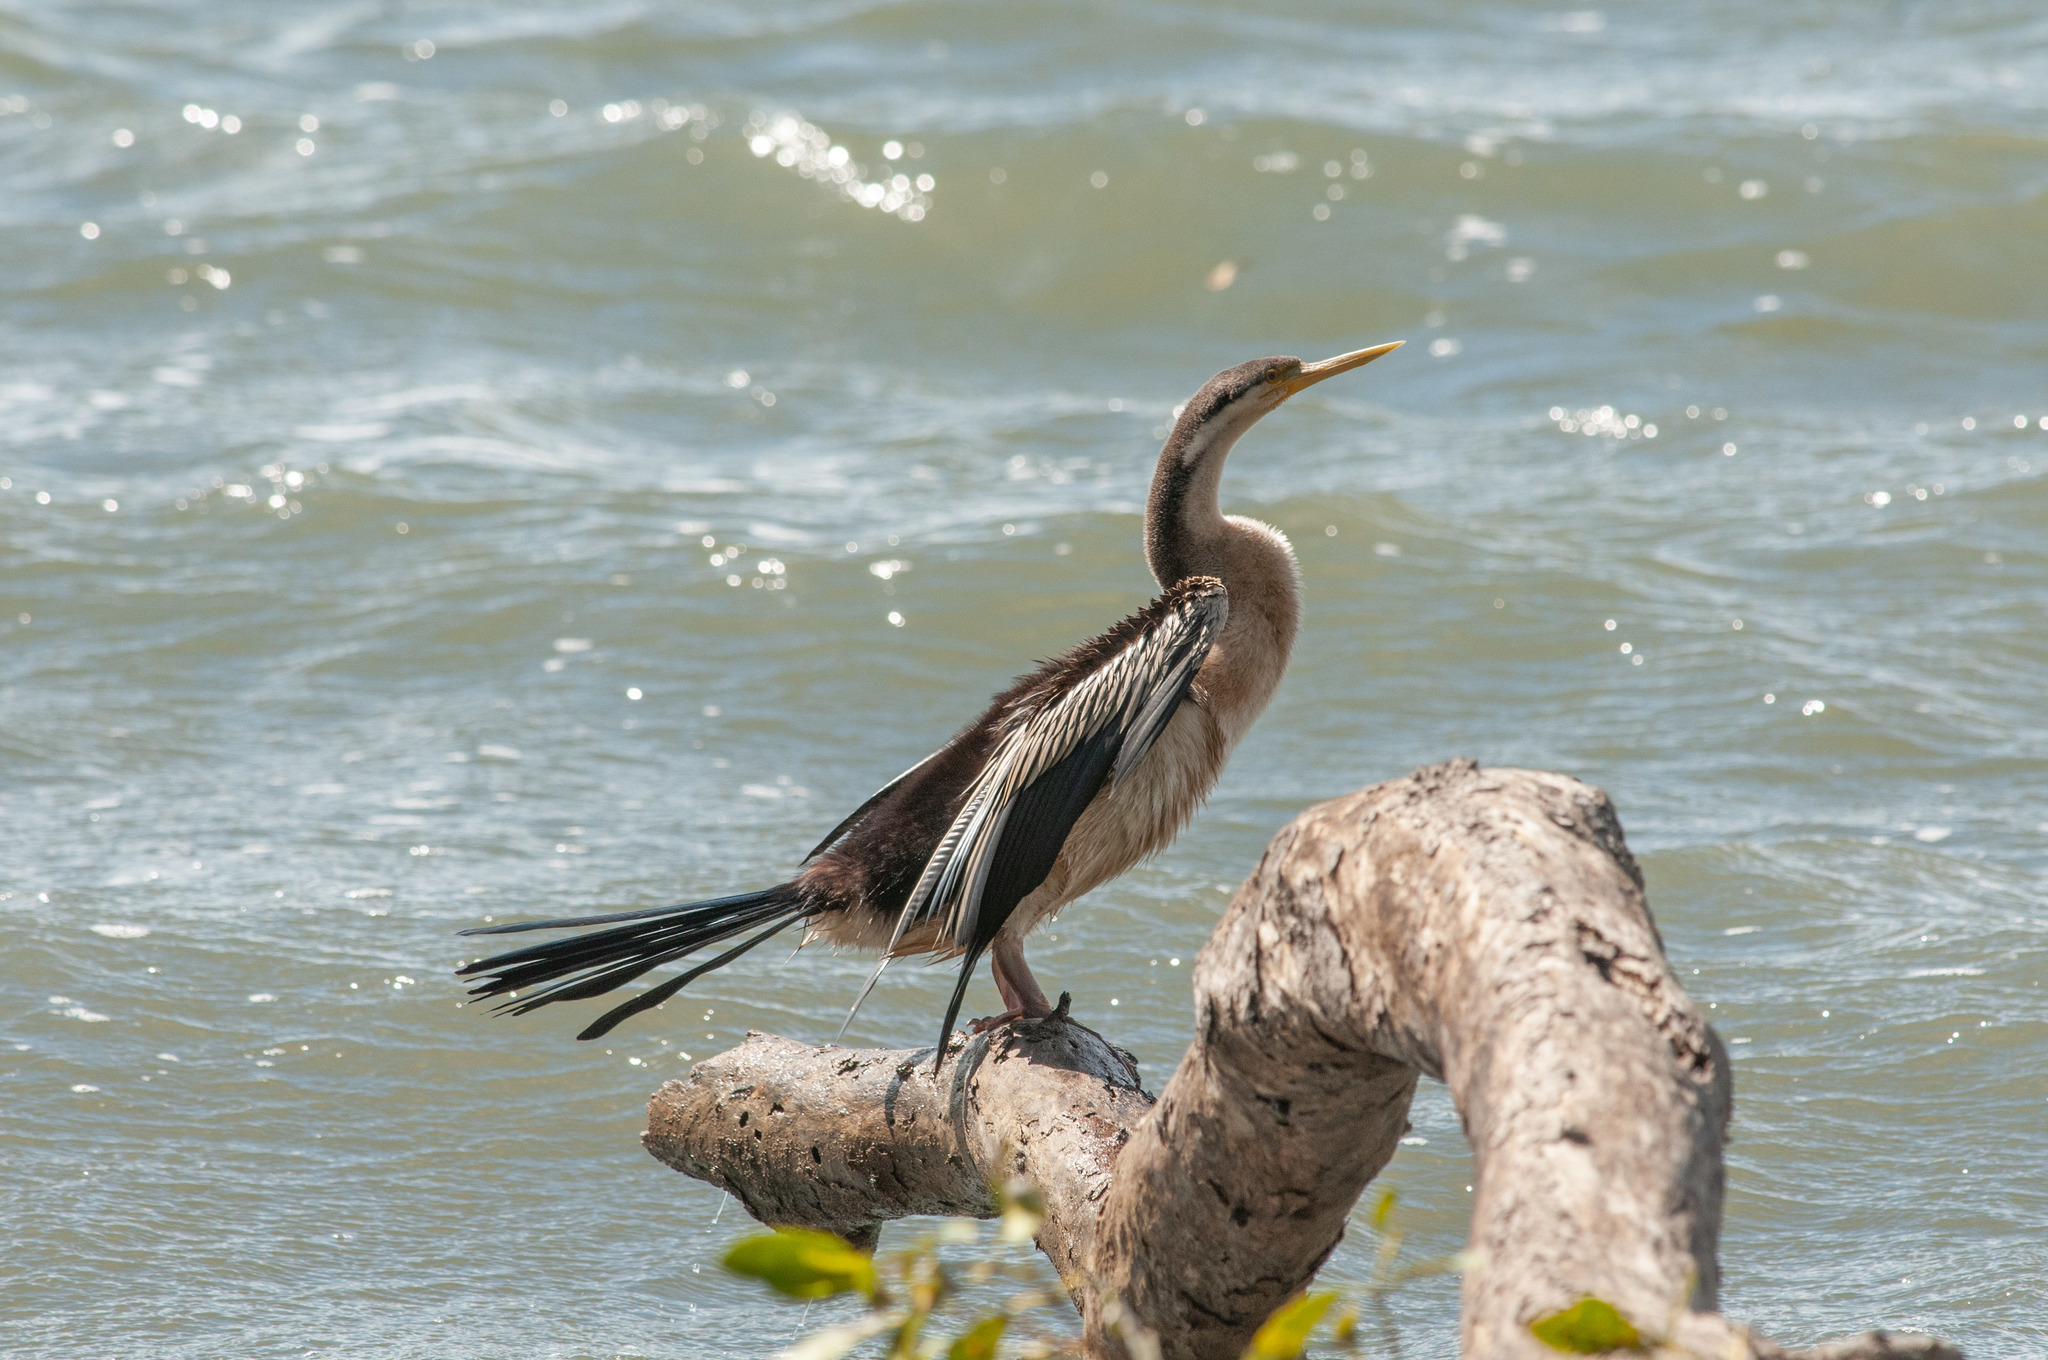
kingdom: Animalia
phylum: Chordata
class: Aves
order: Suliformes
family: Anhingidae
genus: Anhinga
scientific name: Anhinga novaehollandiae
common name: Australasian darter
